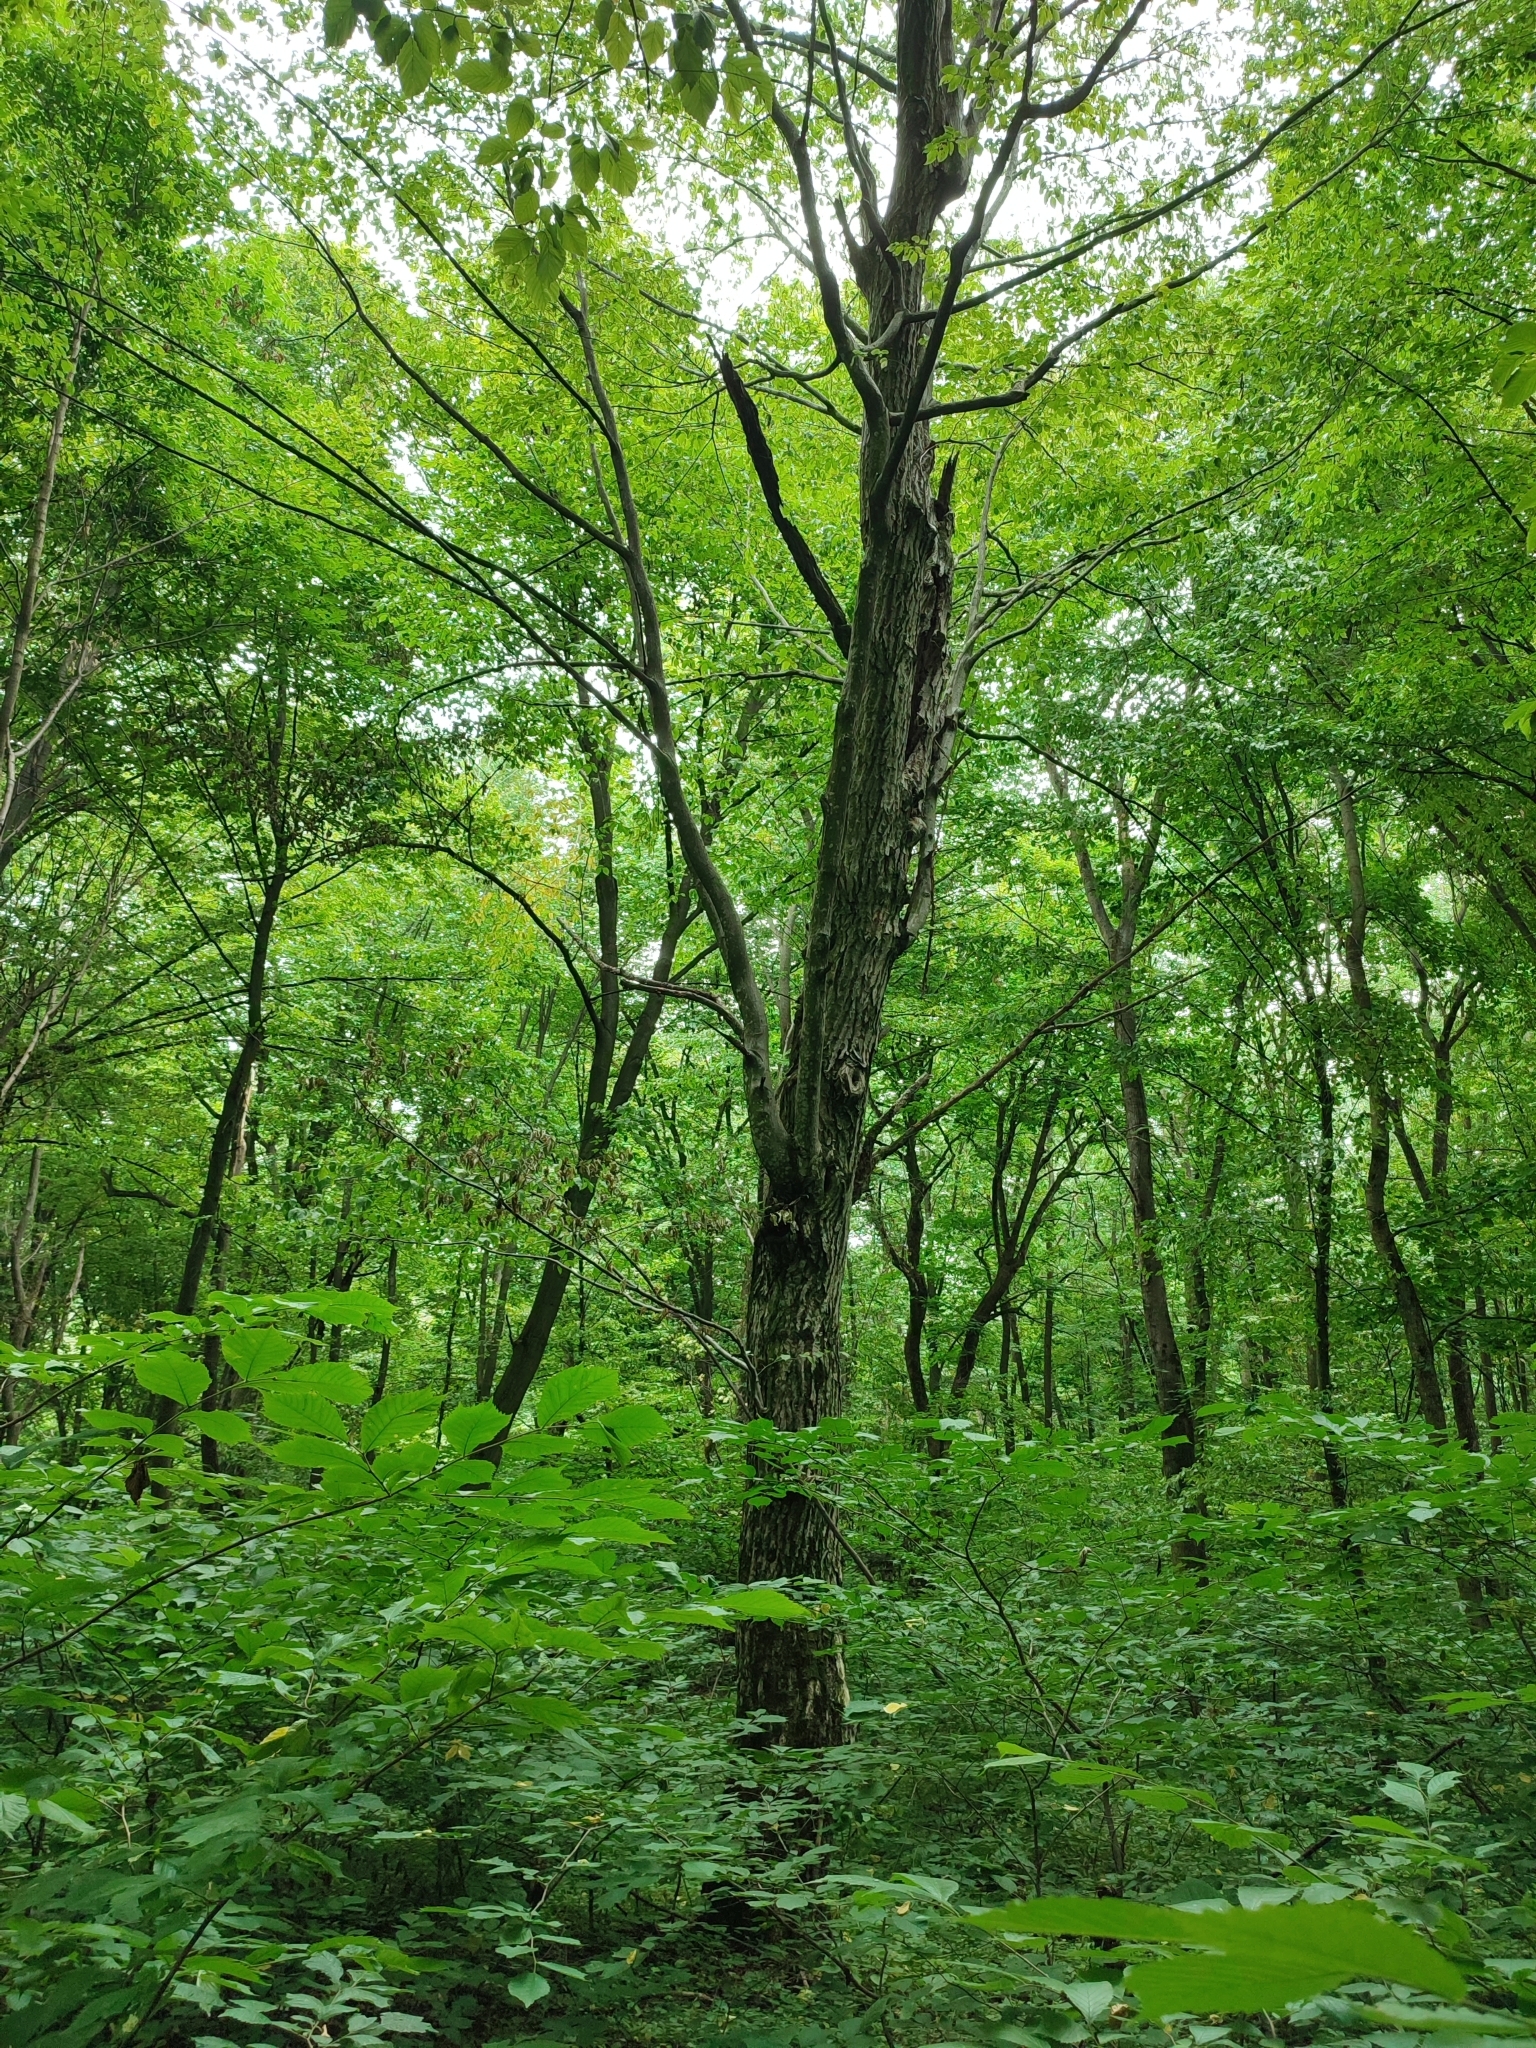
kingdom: Plantae
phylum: Tracheophyta
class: Magnoliopsida
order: Fagales
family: Betulaceae
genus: Carpinus
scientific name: Carpinus betulus
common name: Hornbeam
